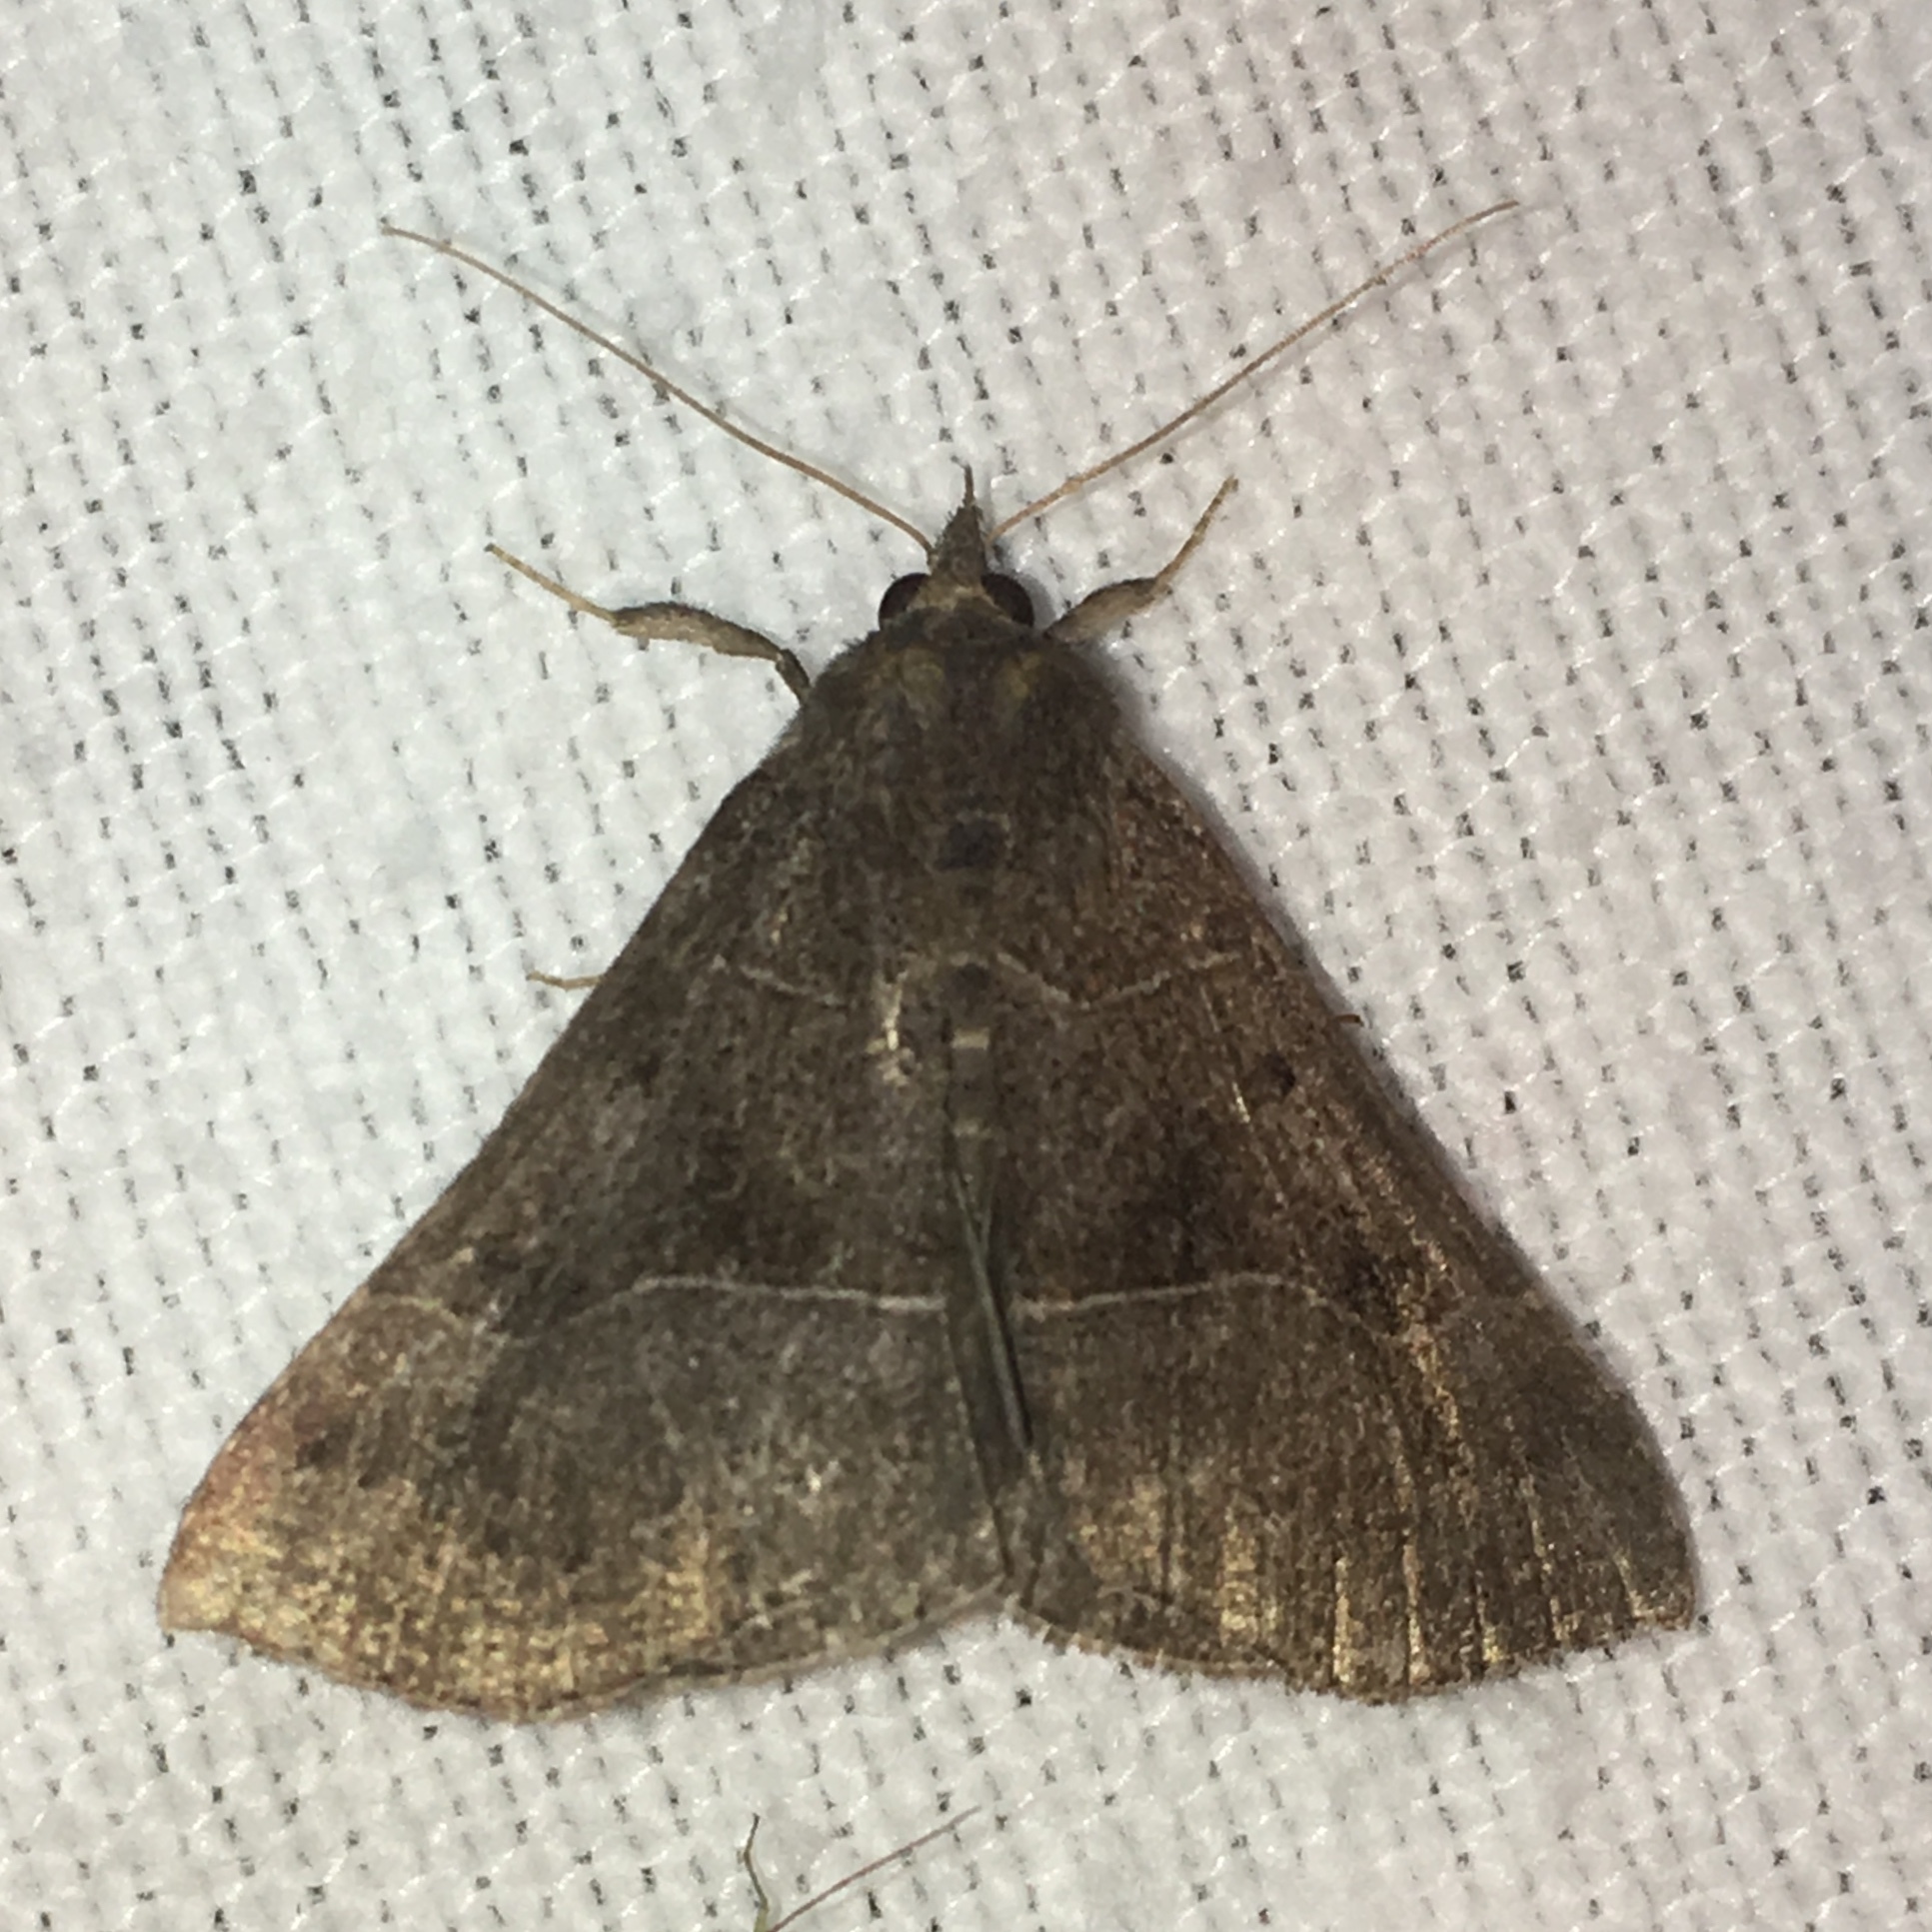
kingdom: Animalia
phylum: Arthropoda
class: Insecta
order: Lepidoptera
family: Erebidae
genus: Hypena
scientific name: Hypena deceptalis
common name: Deceptive snout
